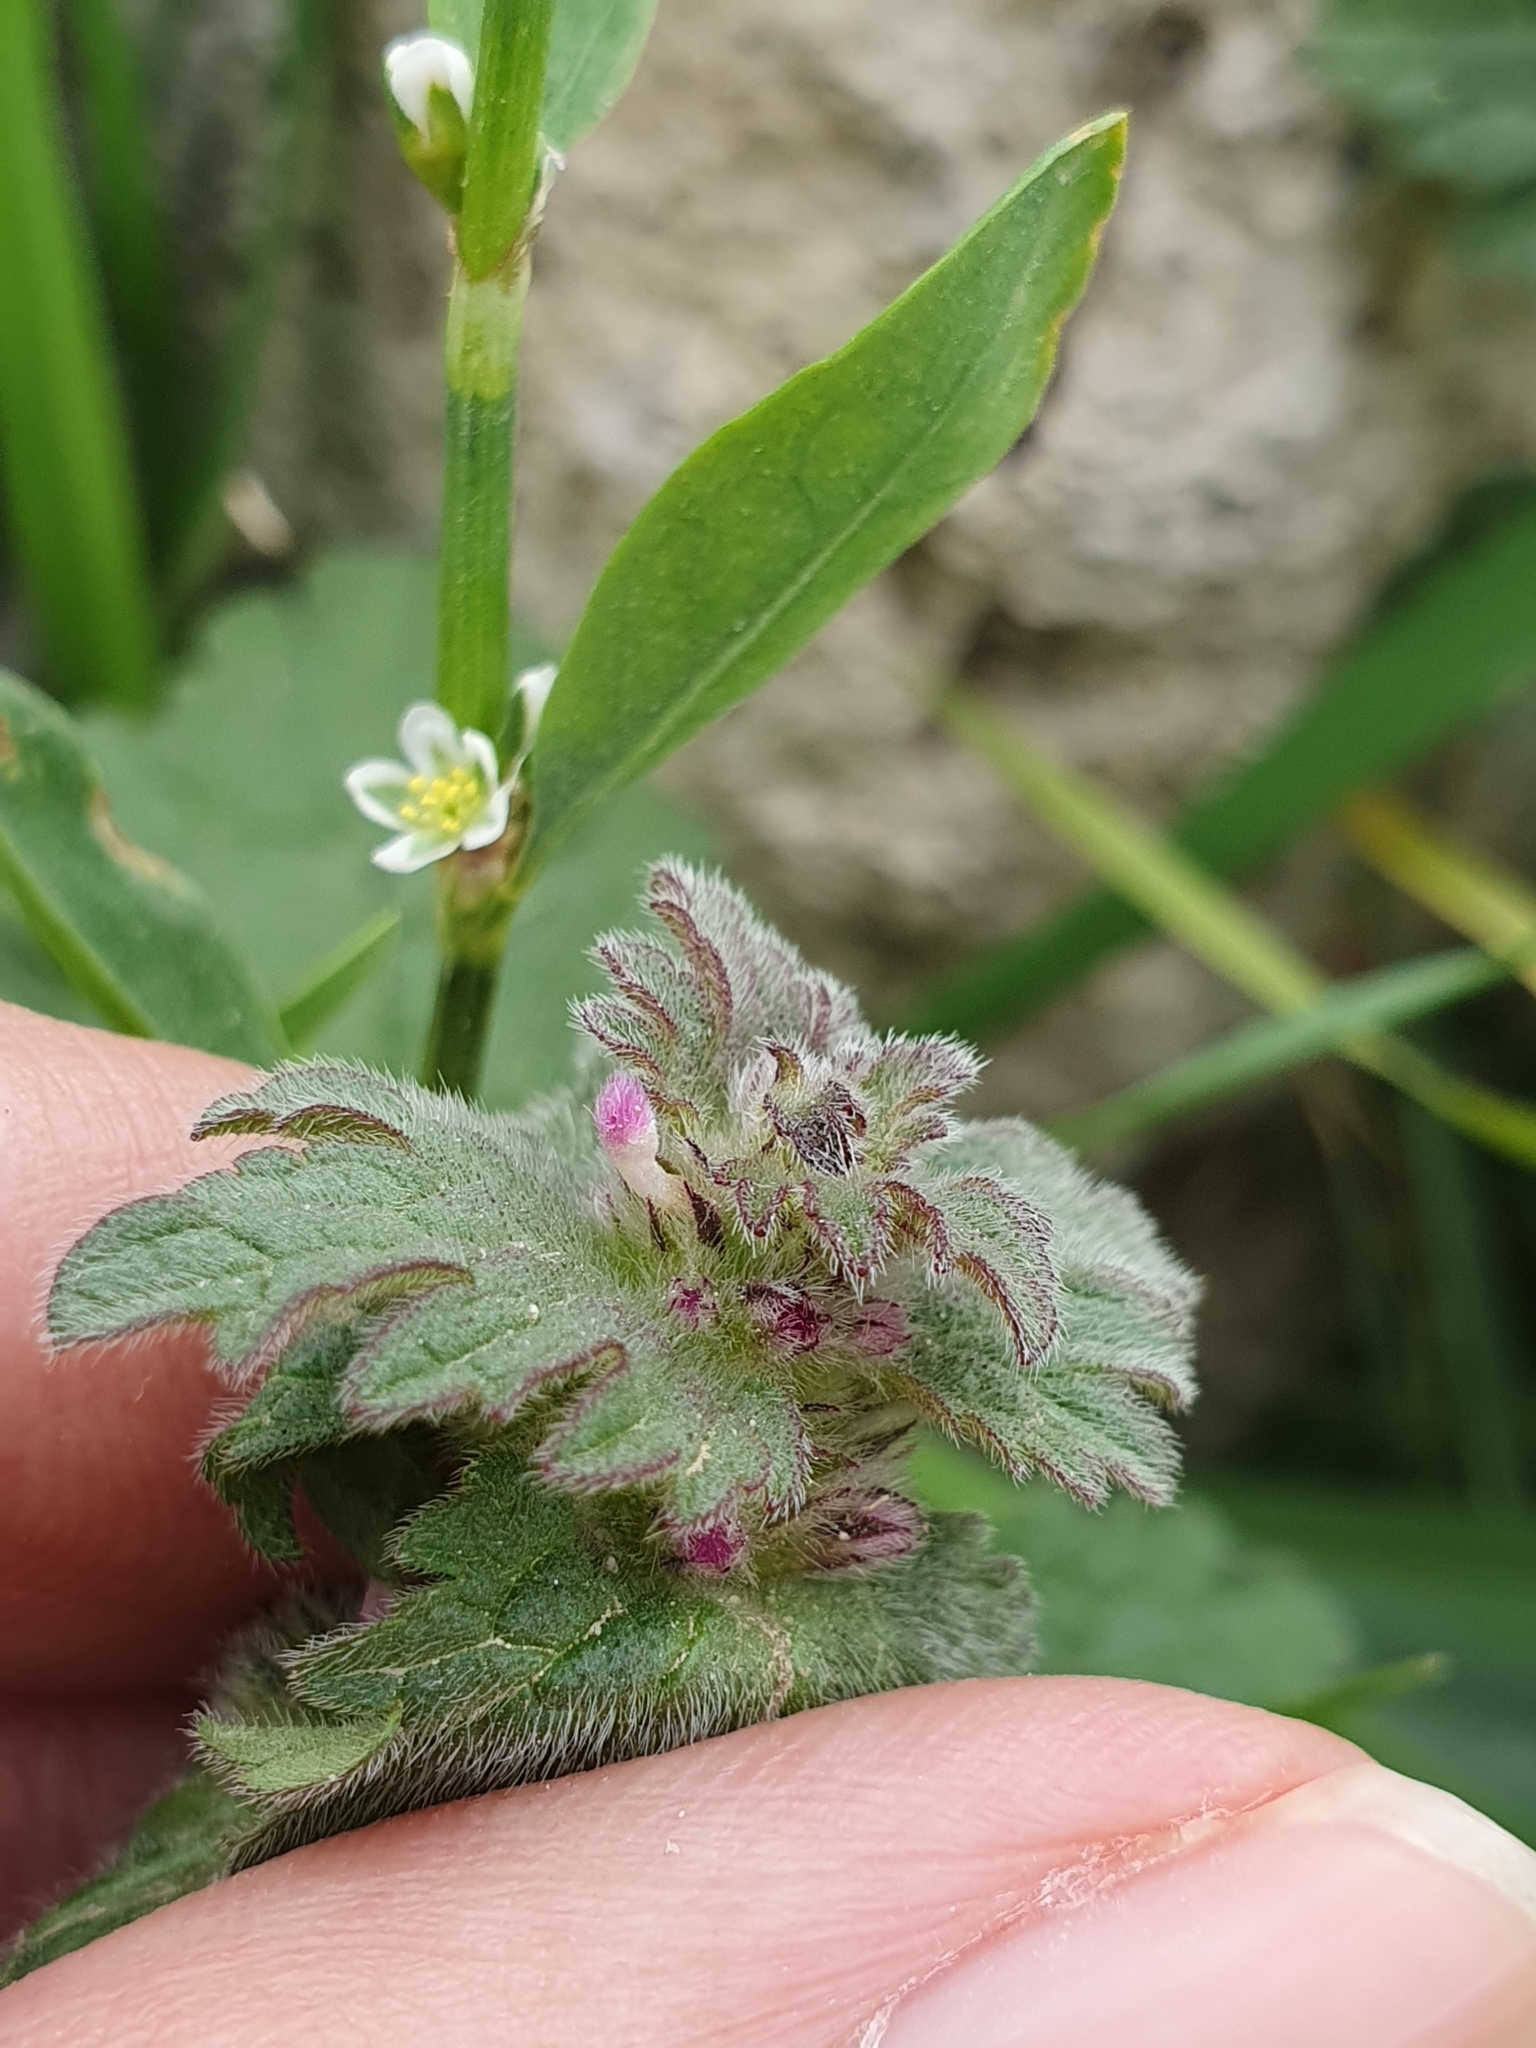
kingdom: Plantae
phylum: Tracheophyta
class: Magnoliopsida
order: Lamiales
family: Lamiaceae
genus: Lamium
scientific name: Lamium amplexicaule
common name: Henbit dead-nettle
